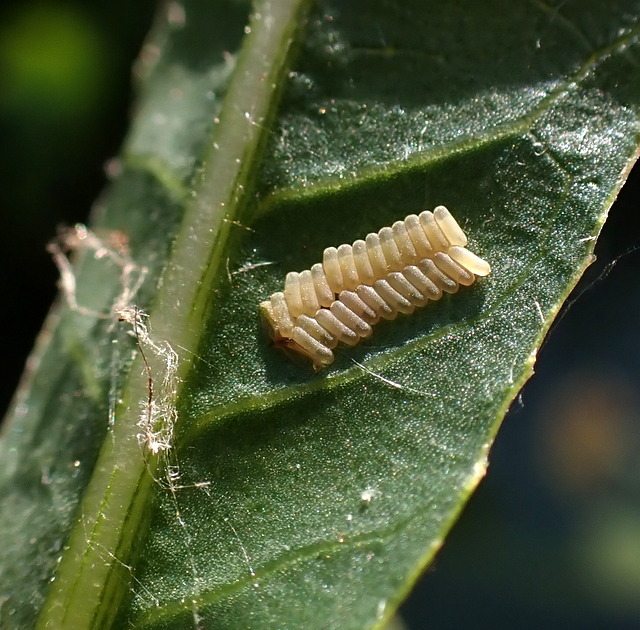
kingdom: Animalia
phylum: Arthropoda
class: Insecta
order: Coleoptera
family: Chrysomelidae
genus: Agasicles
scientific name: Agasicles hygrophila
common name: Alligatorweed flea beetle
